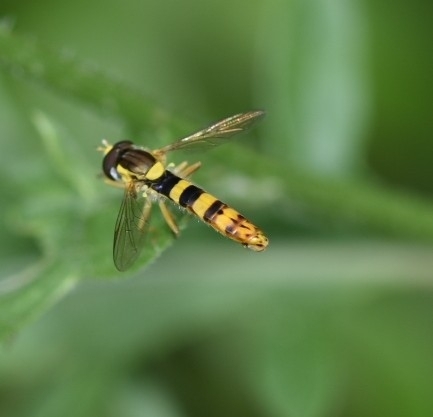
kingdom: Animalia
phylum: Arthropoda
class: Insecta
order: Diptera
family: Syrphidae
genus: Sphaerophoria
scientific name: Sphaerophoria scripta
